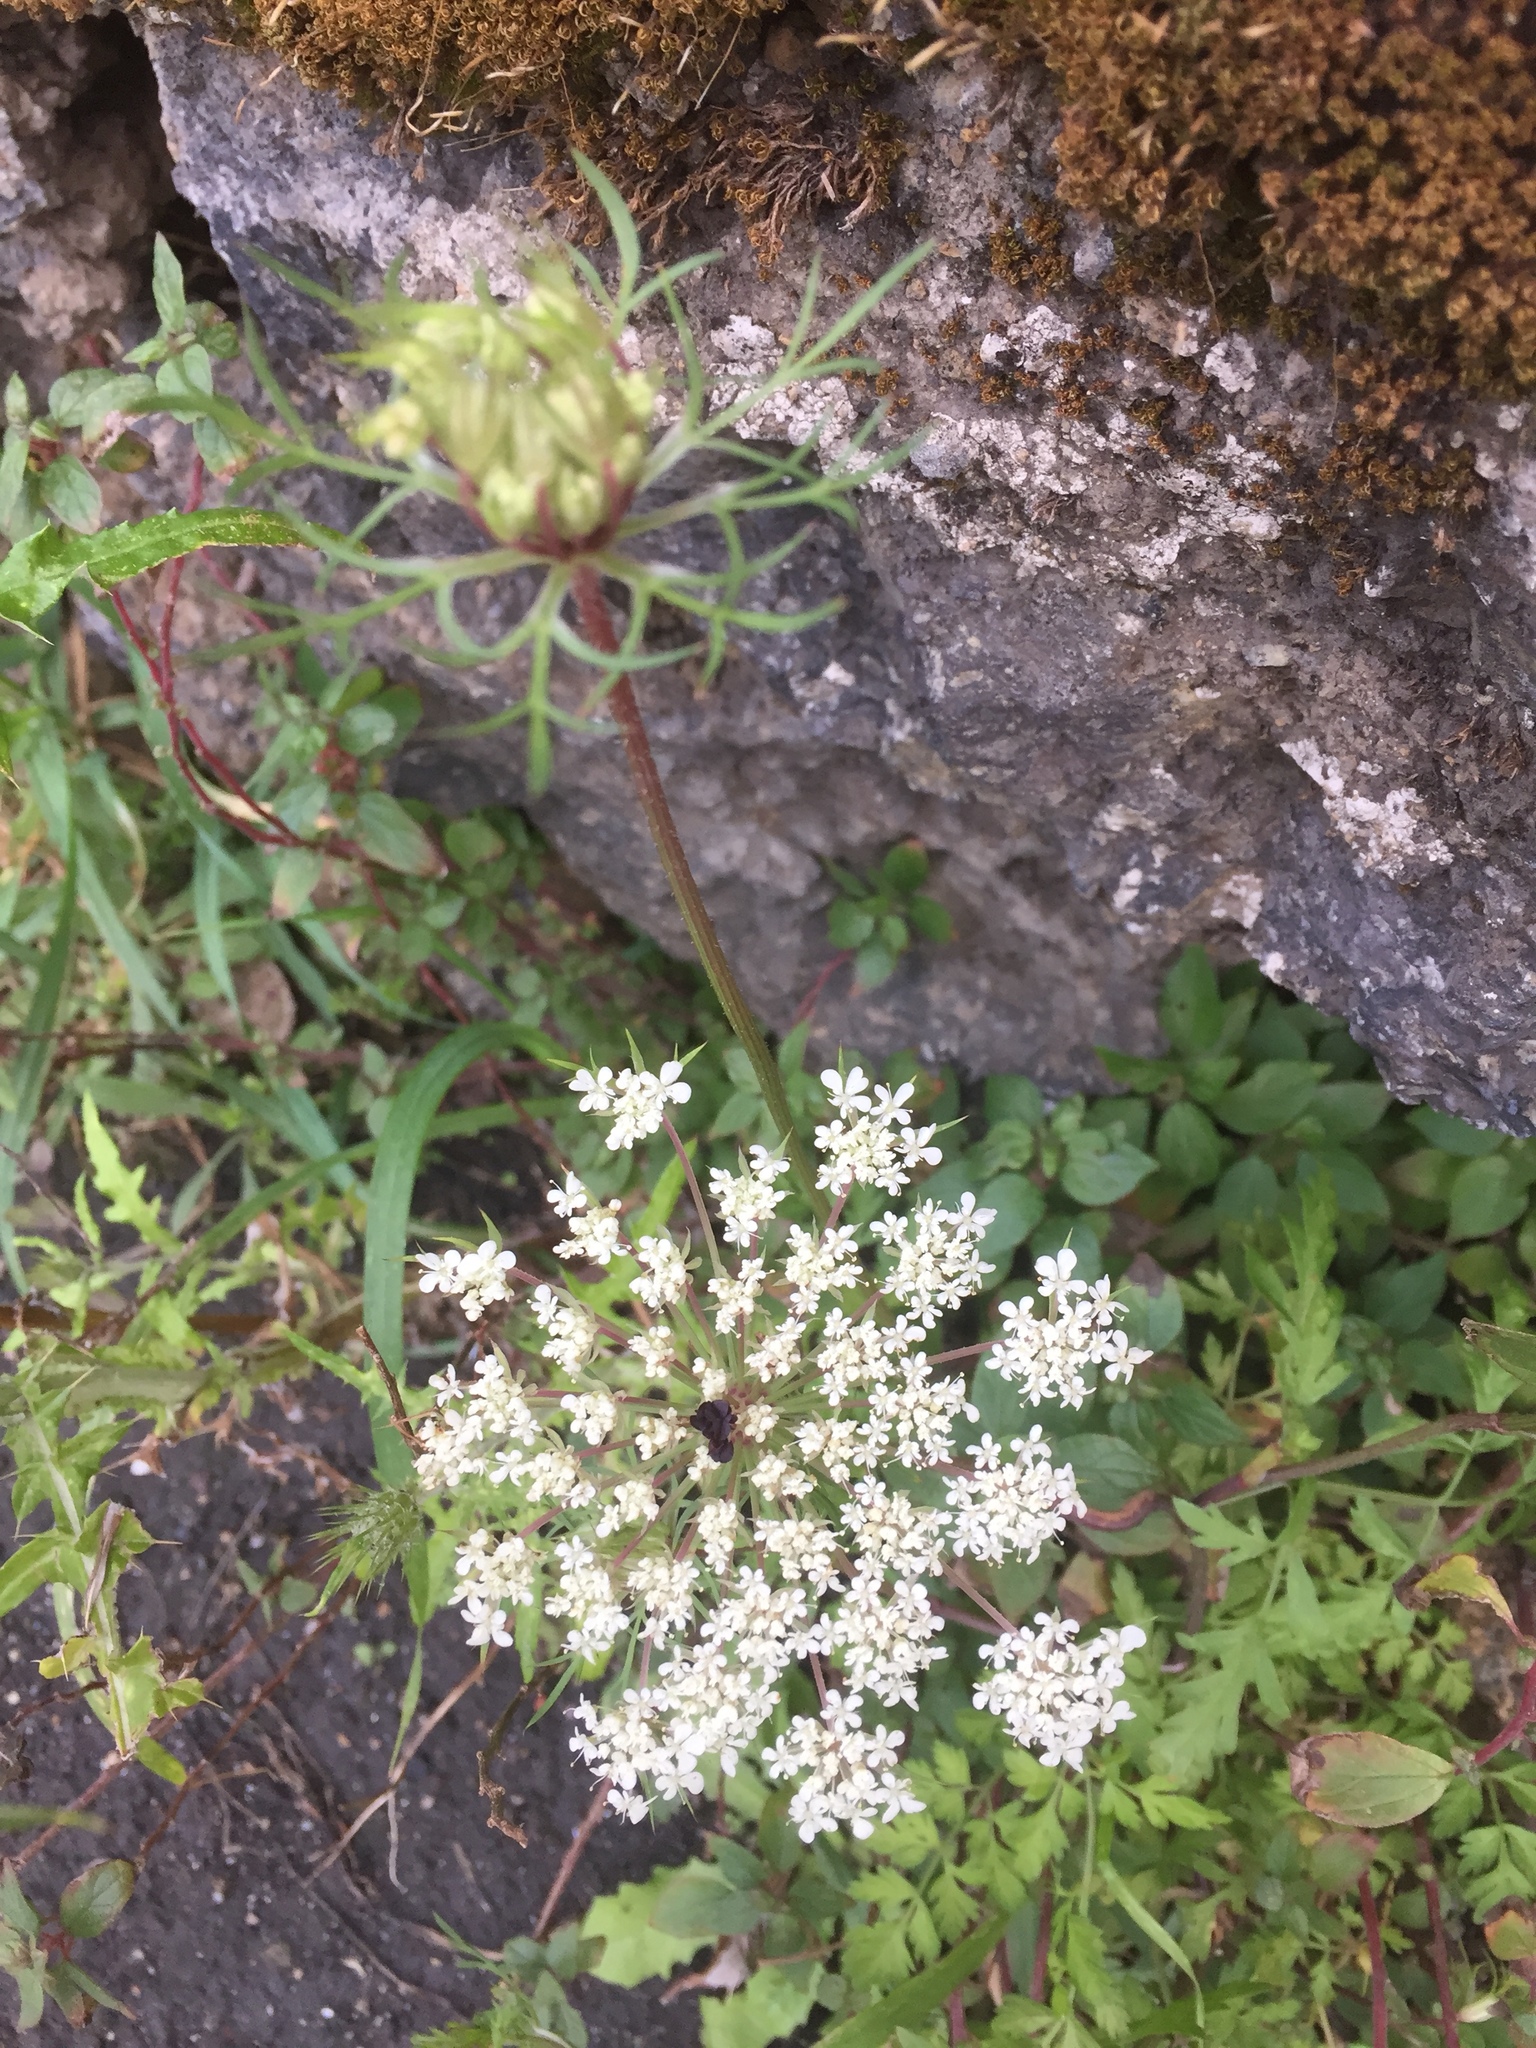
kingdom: Plantae
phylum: Tracheophyta
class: Magnoliopsida
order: Apiales
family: Apiaceae
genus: Daucus
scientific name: Daucus carota
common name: Wild carrot
